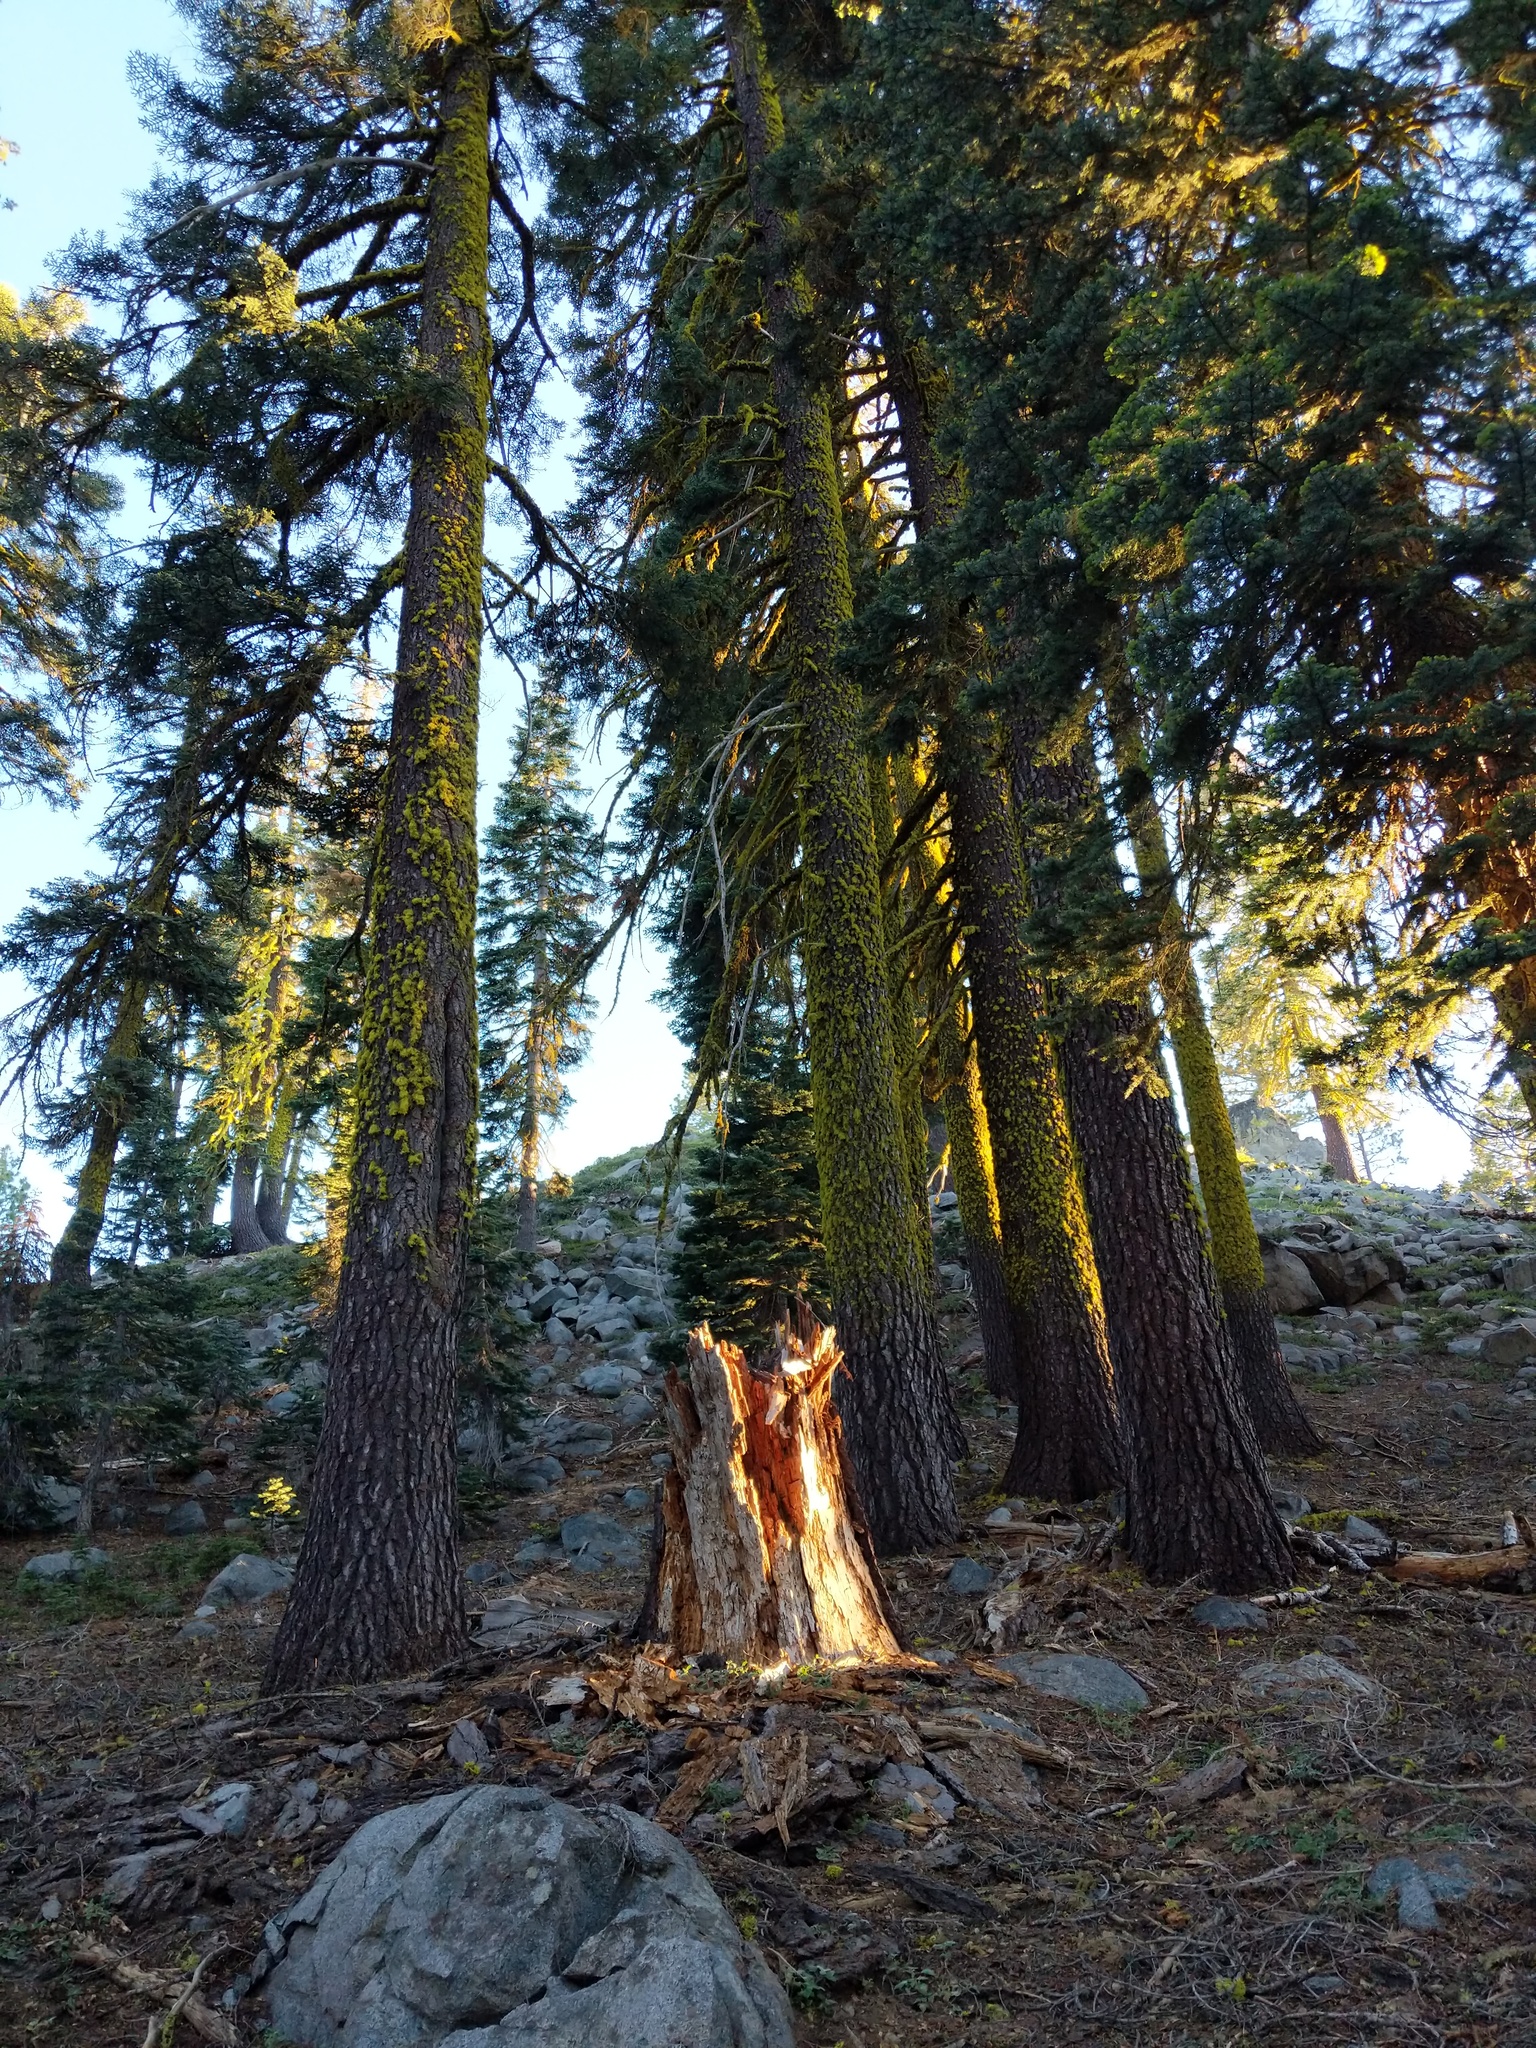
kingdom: Fungi
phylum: Ascomycota
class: Lecanoromycetes
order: Lecanorales
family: Parmeliaceae
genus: Letharia
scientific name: Letharia columbiana
